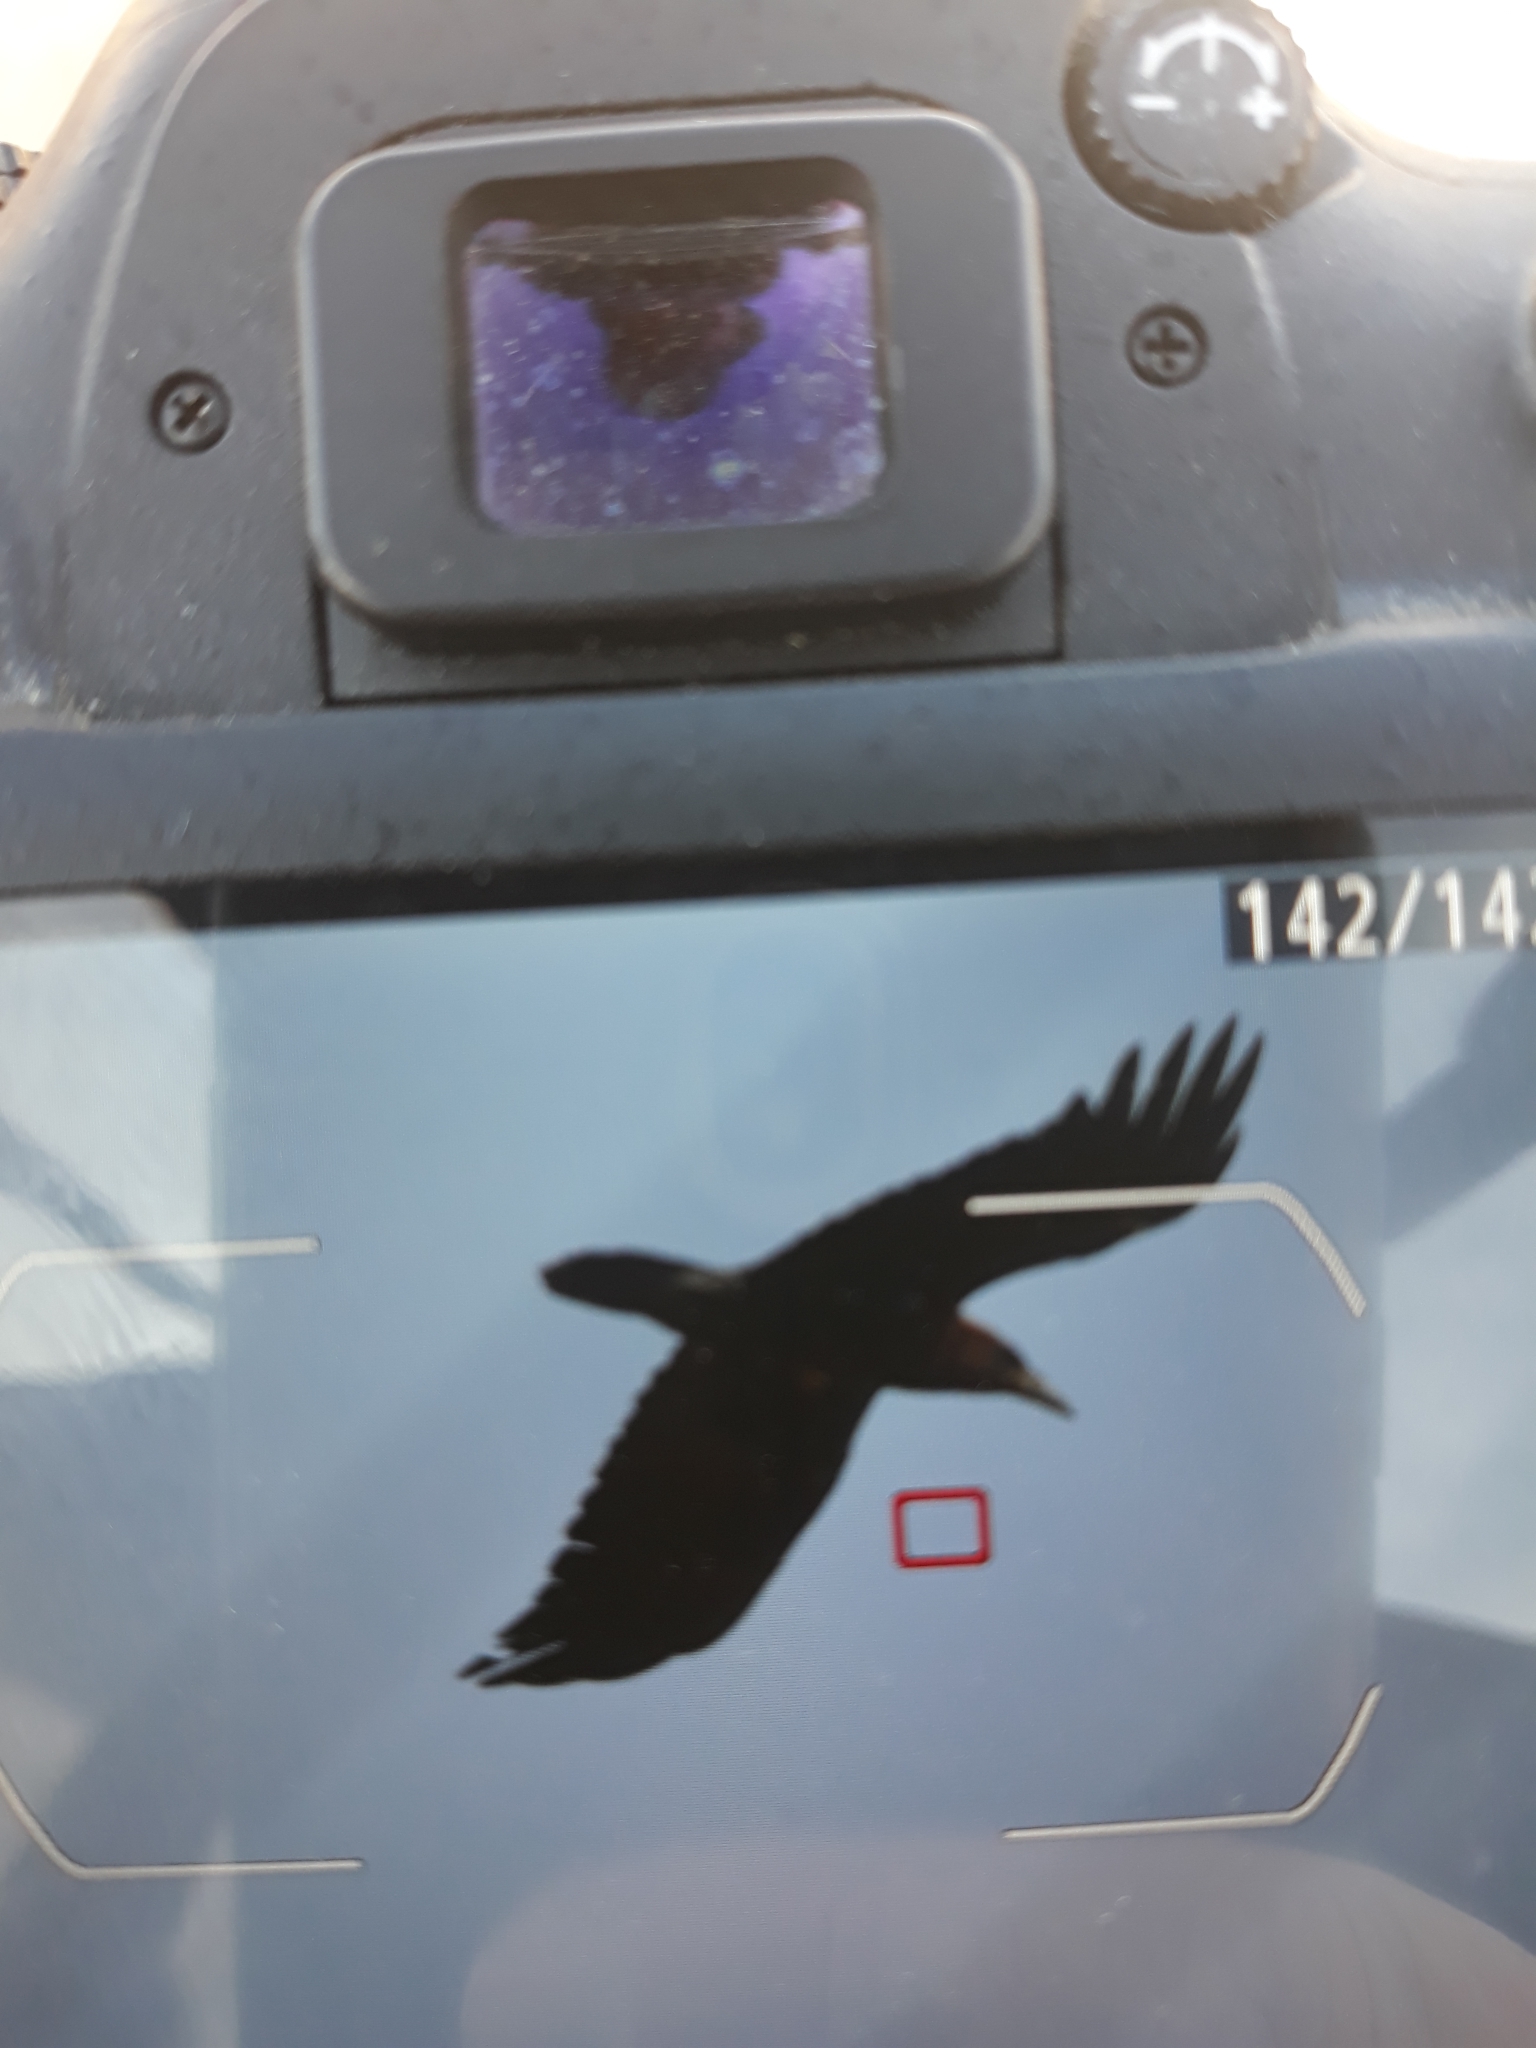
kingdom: Animalia
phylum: Chordata
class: Aves
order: Passeriformes
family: Corvidae
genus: Corvus
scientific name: Corvus ruficollis
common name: Brown-necked raven
